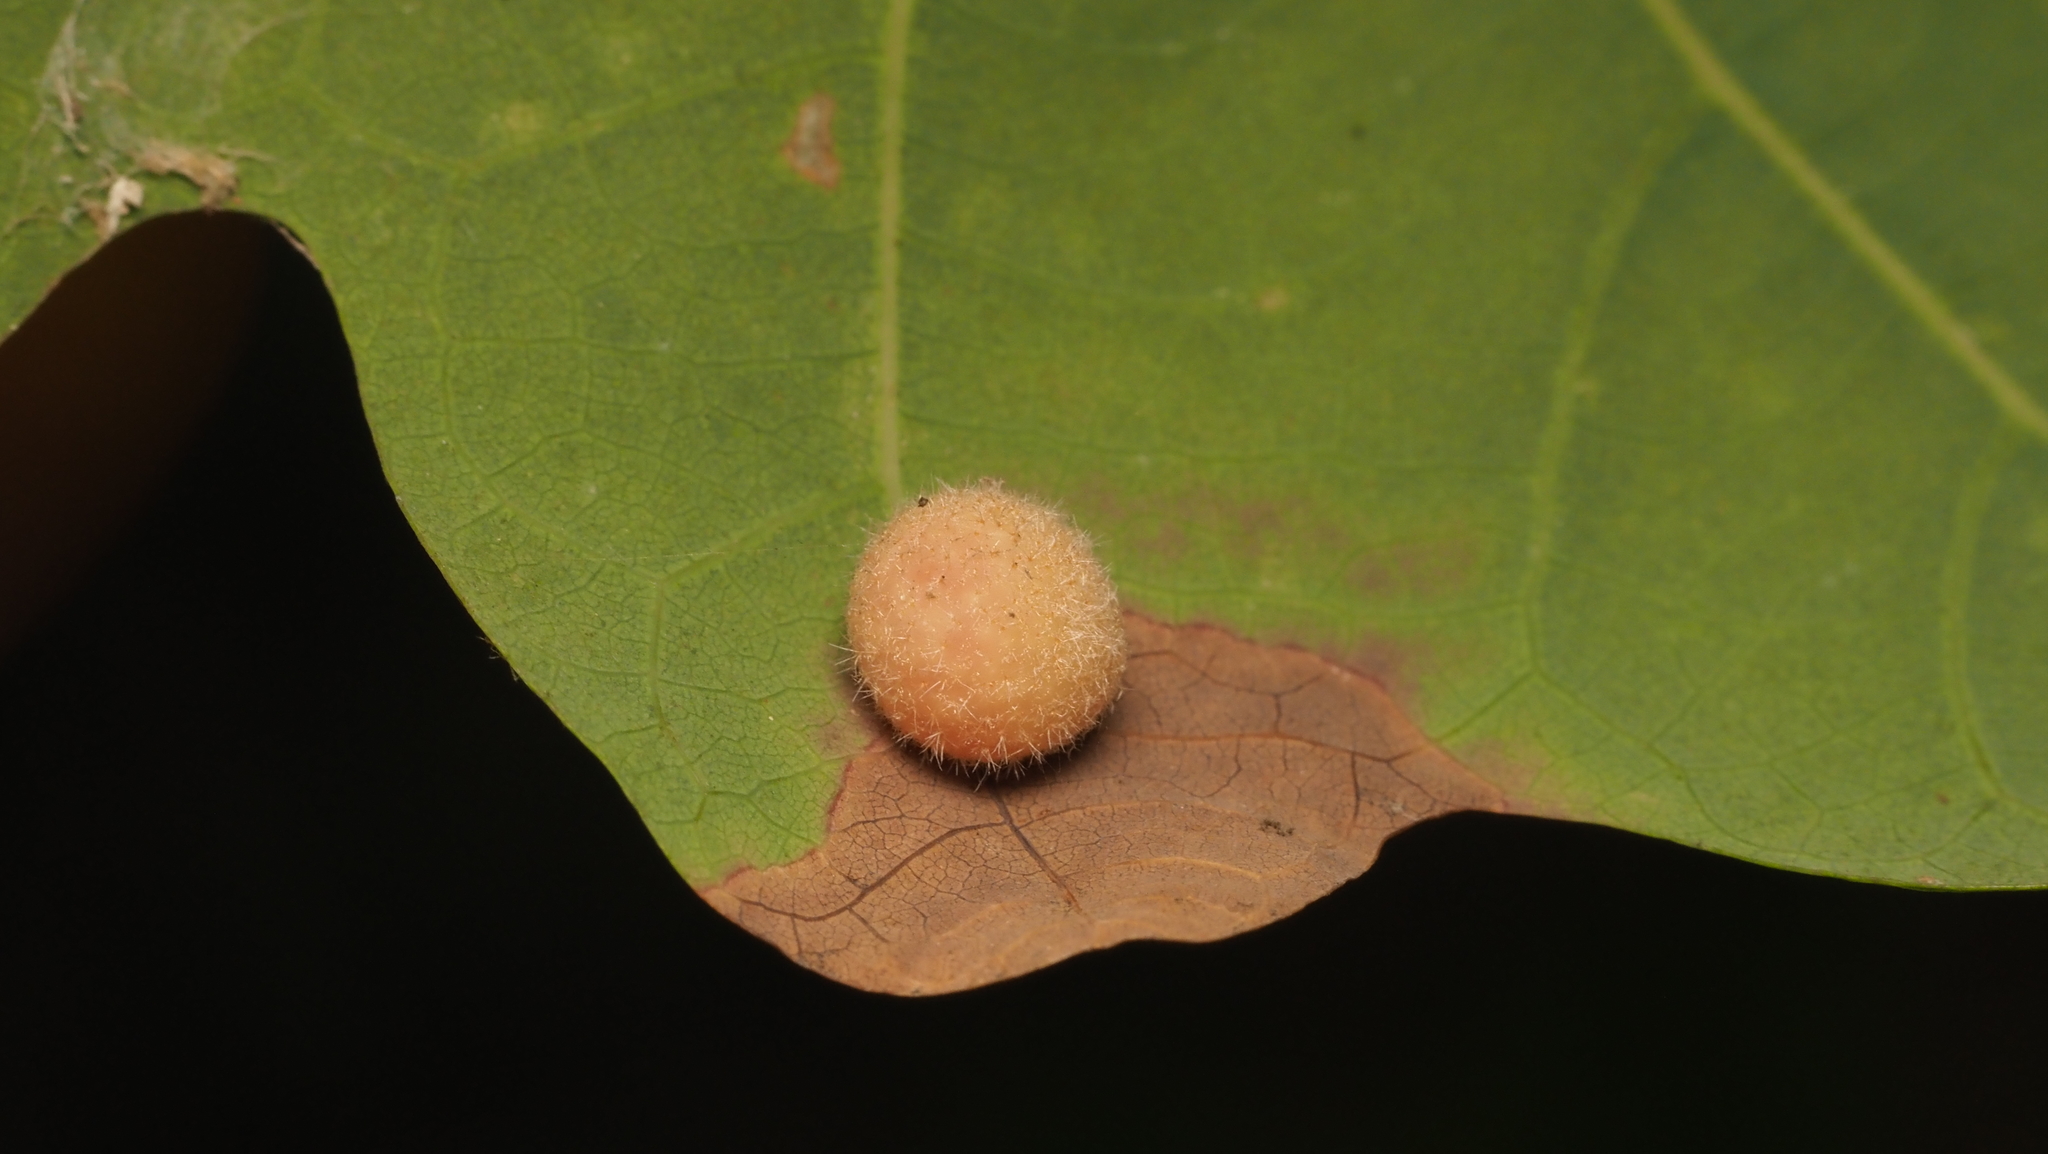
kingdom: Animalia
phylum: Arthropoda
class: Insecta
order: Hymenoptera
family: Cynipidae
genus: Philonix
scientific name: Philonix fulvicollis
